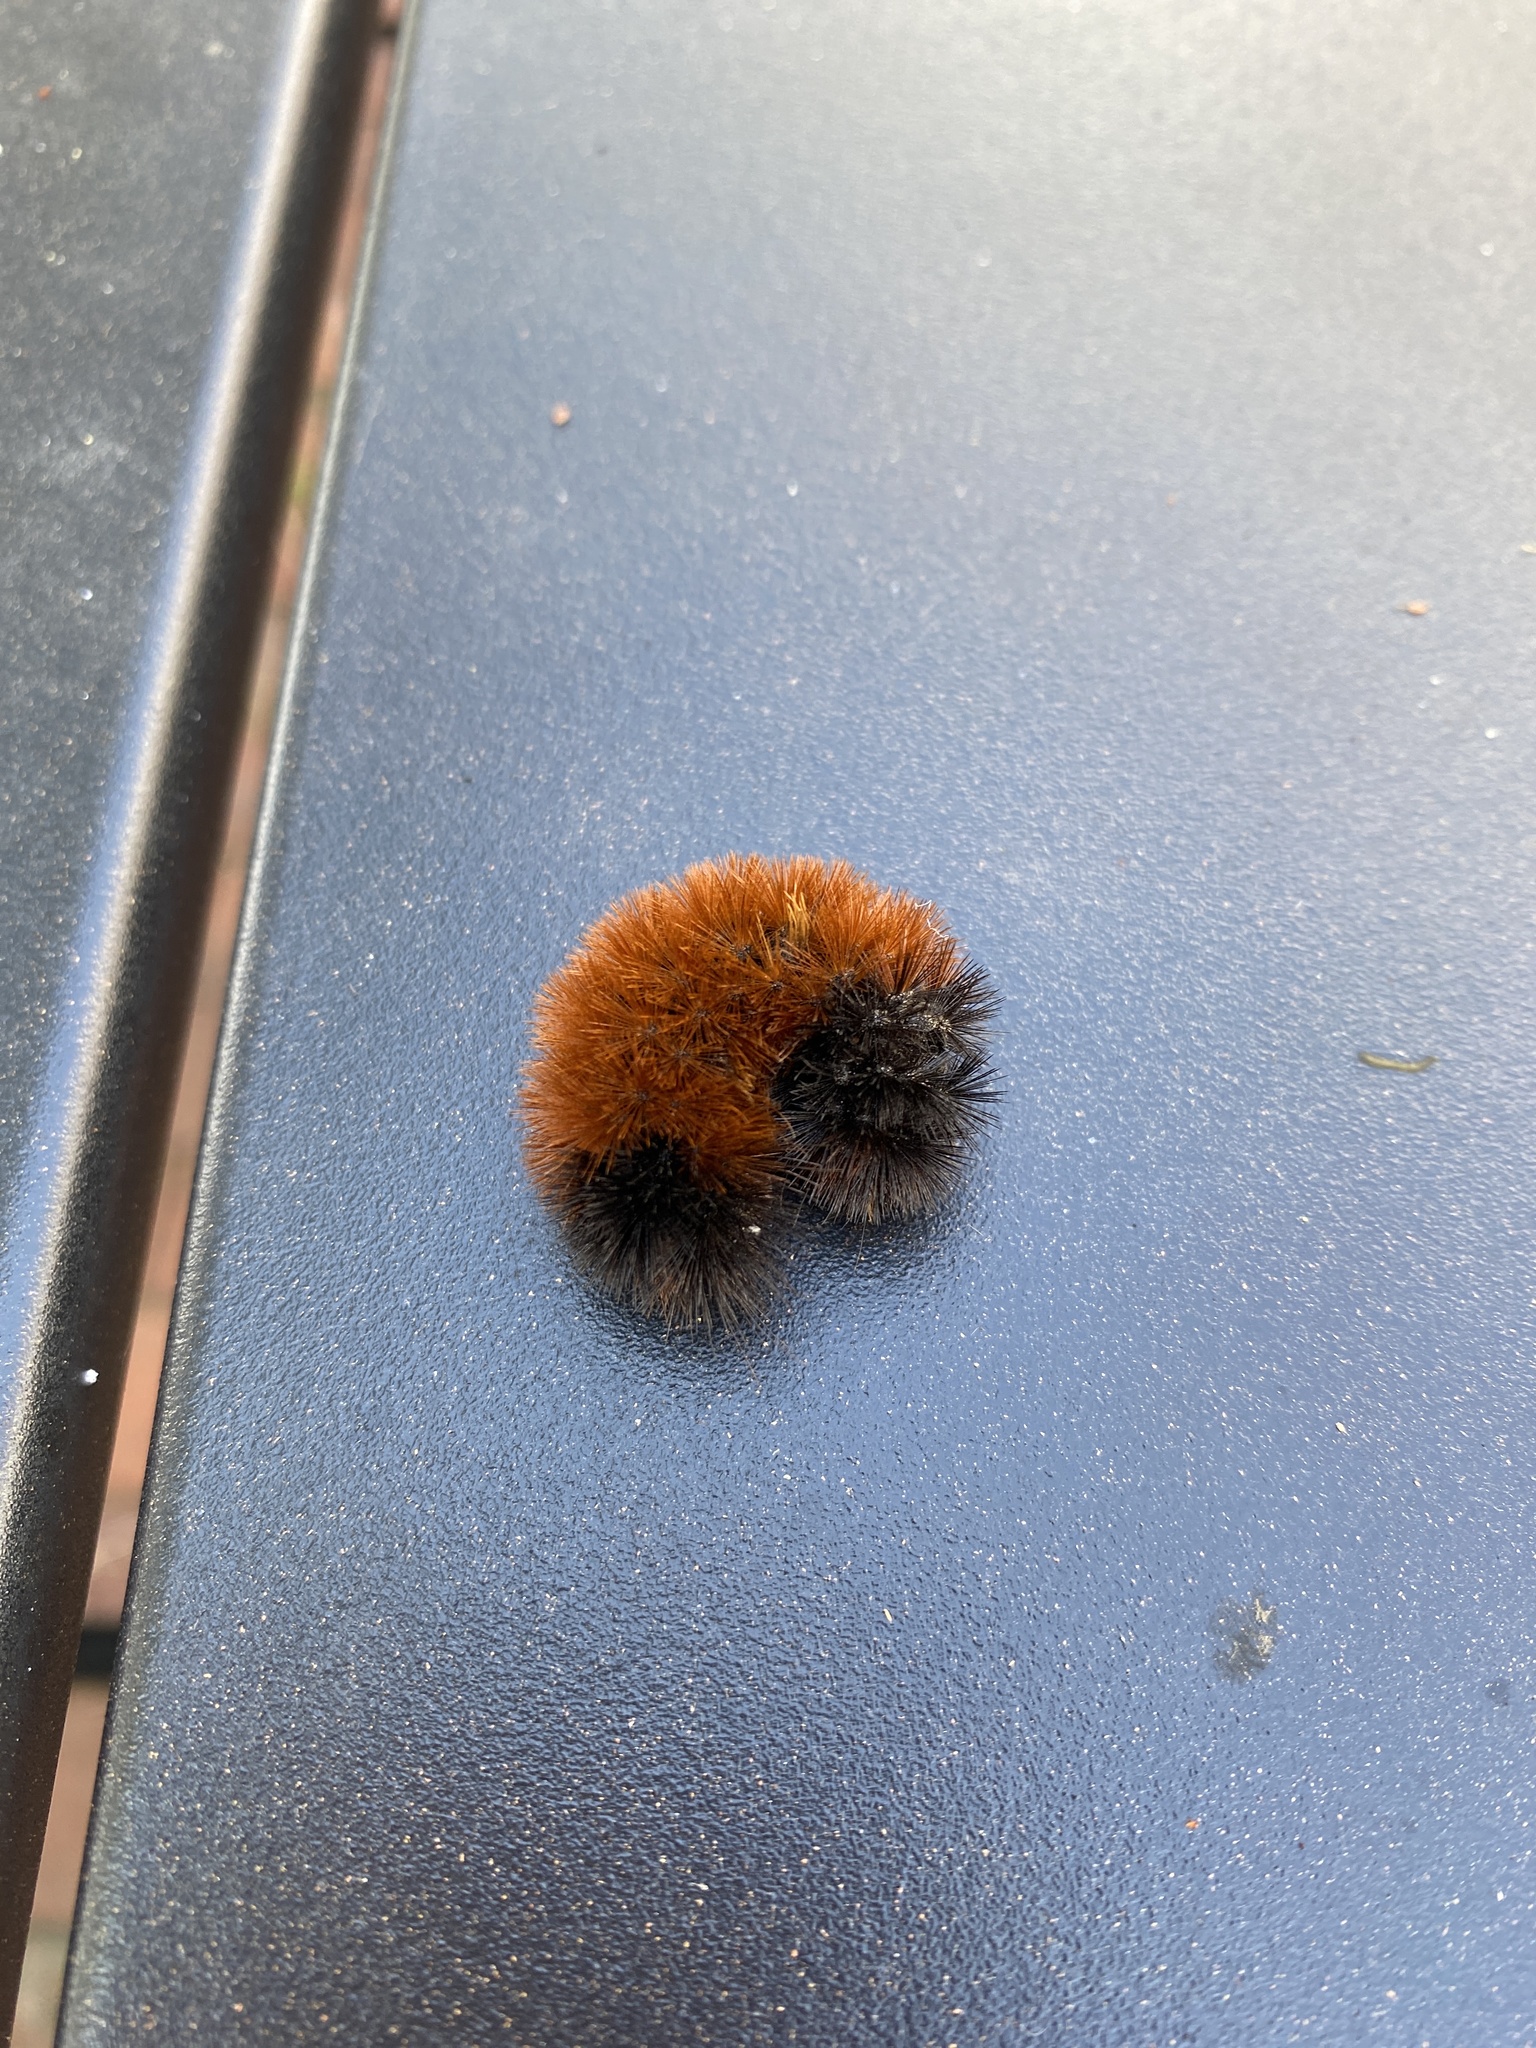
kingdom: Animalia
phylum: Arthropoda
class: Insecta
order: Lepidoptera
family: Erebidae
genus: Pyrrharctia
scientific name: Pyrrharctia isabella
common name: Isabella tiger moth
